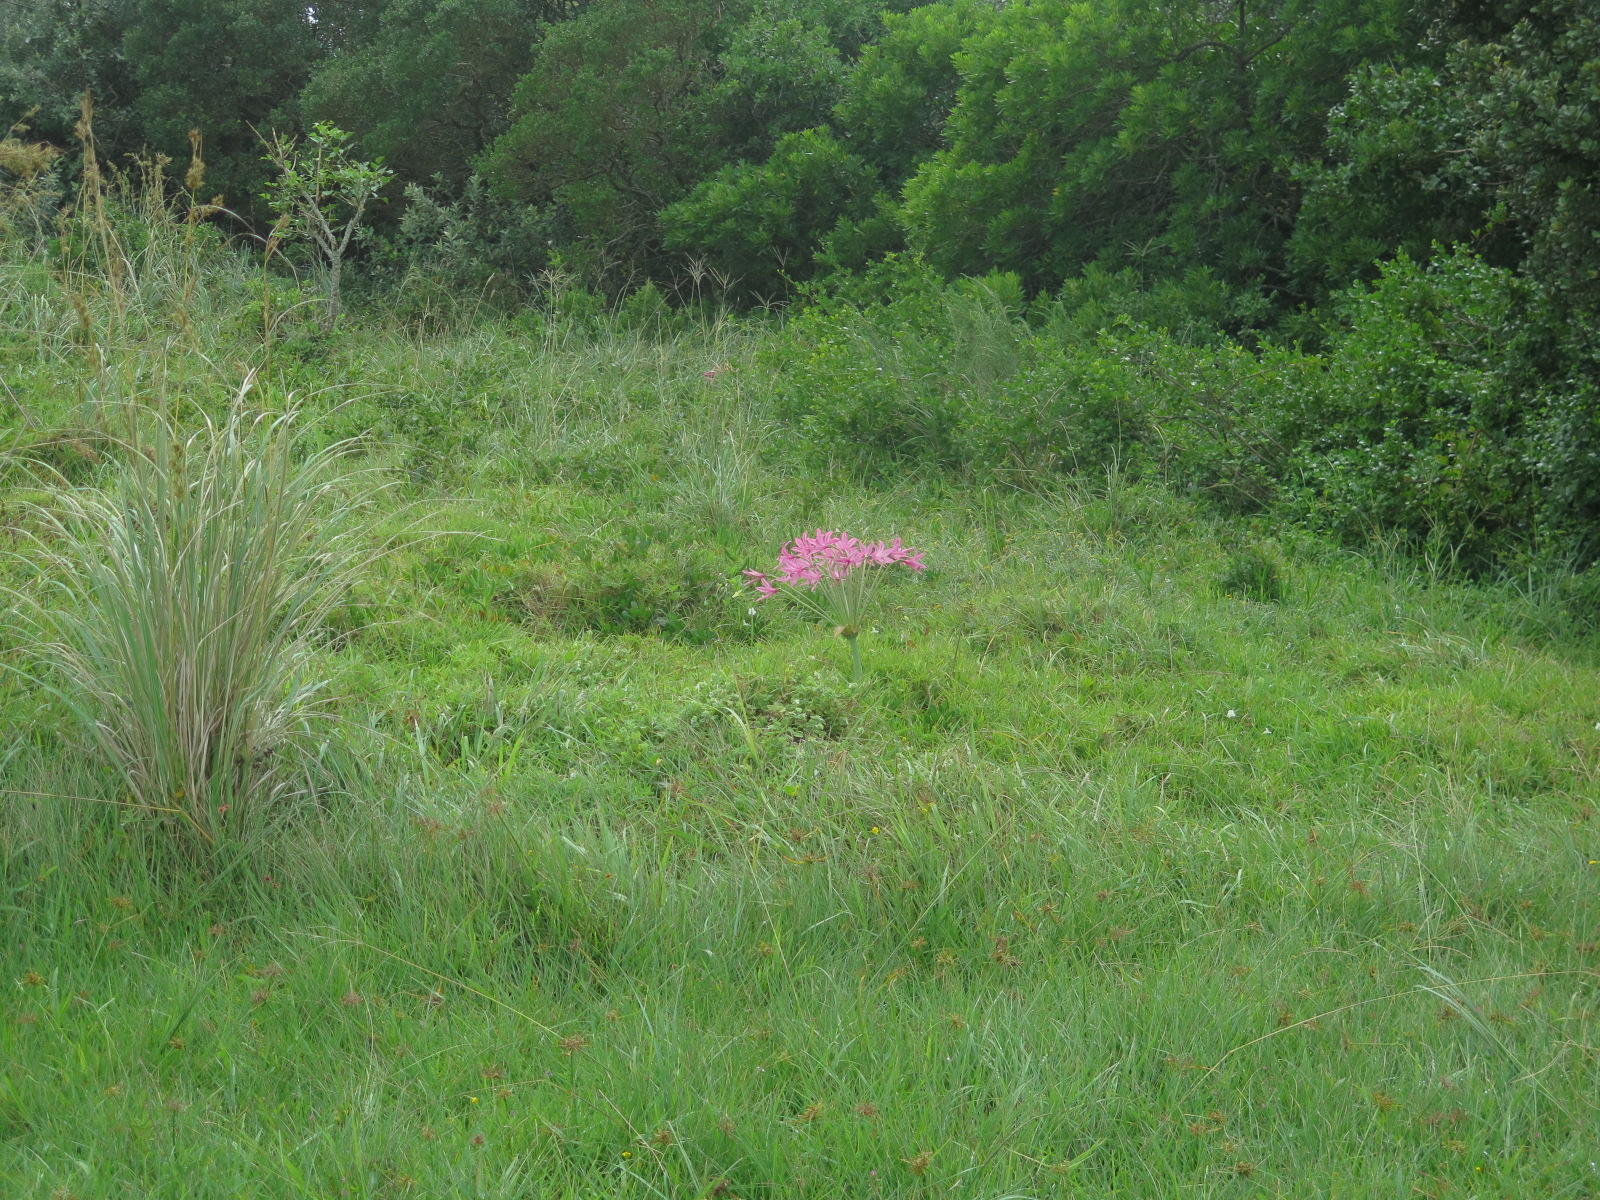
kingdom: Plantae
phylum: Tracheophyta
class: Liliopsida
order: Asparagales
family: Amaryllidaceae
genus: Brunsvigia
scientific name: Brunsvigia radulosa
